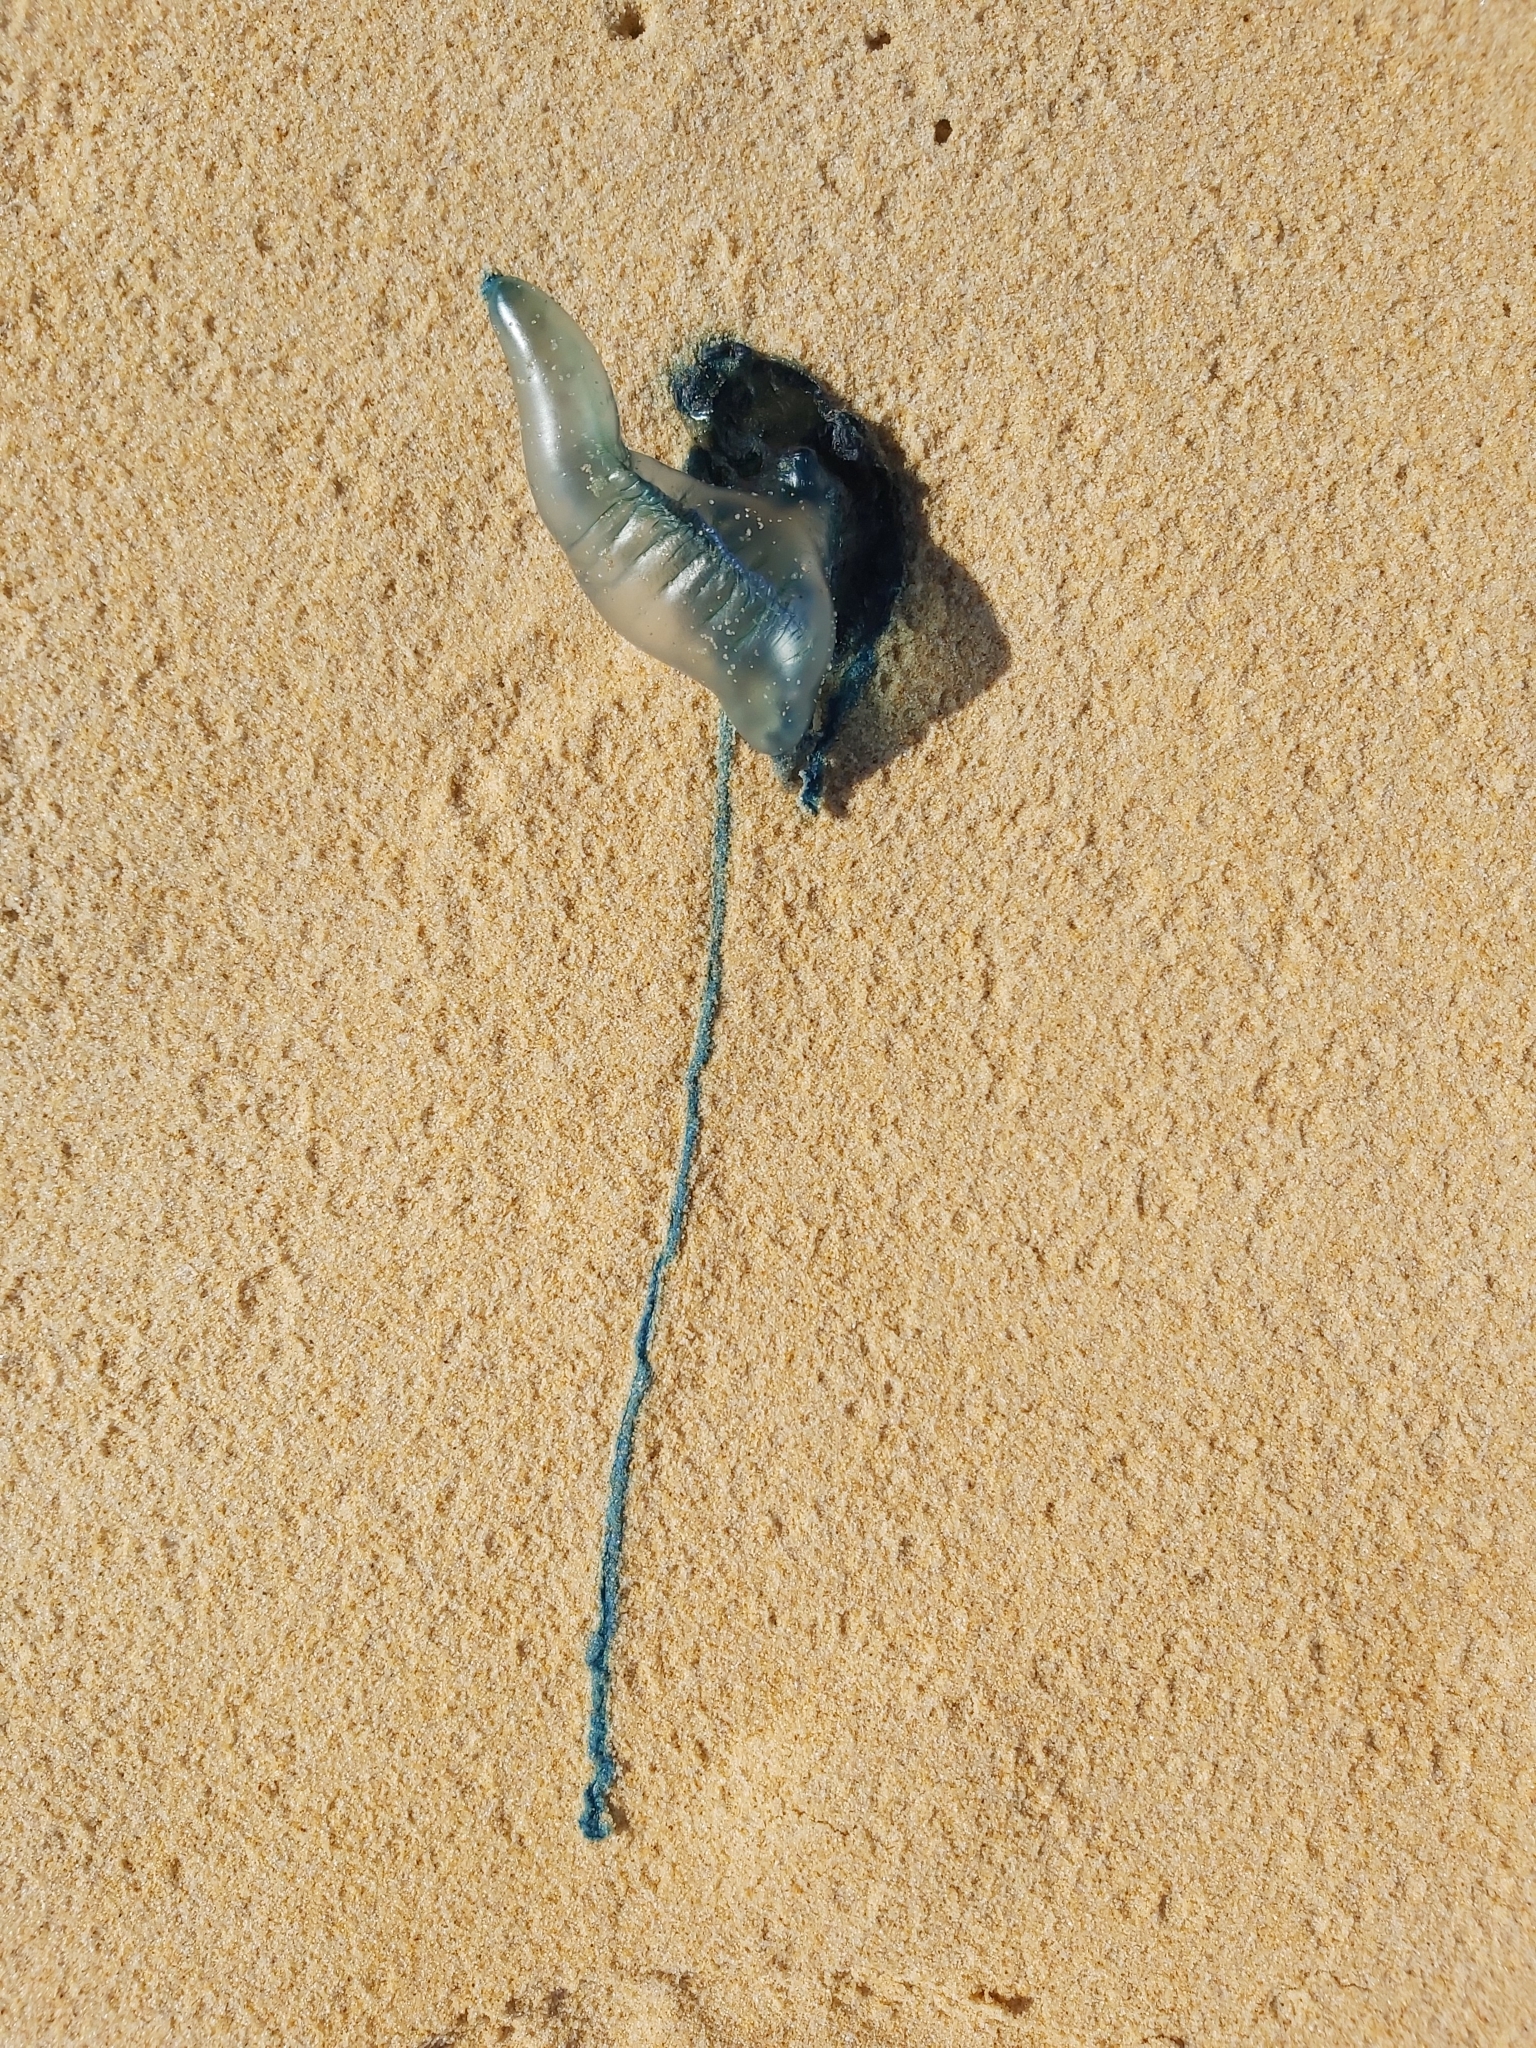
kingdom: Animalia
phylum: Cnidaria
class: Hydrozoa
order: Siphonophorae
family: Physaliidae
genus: Physalia
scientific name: Physalia physalis
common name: Portuguese man-of-war
